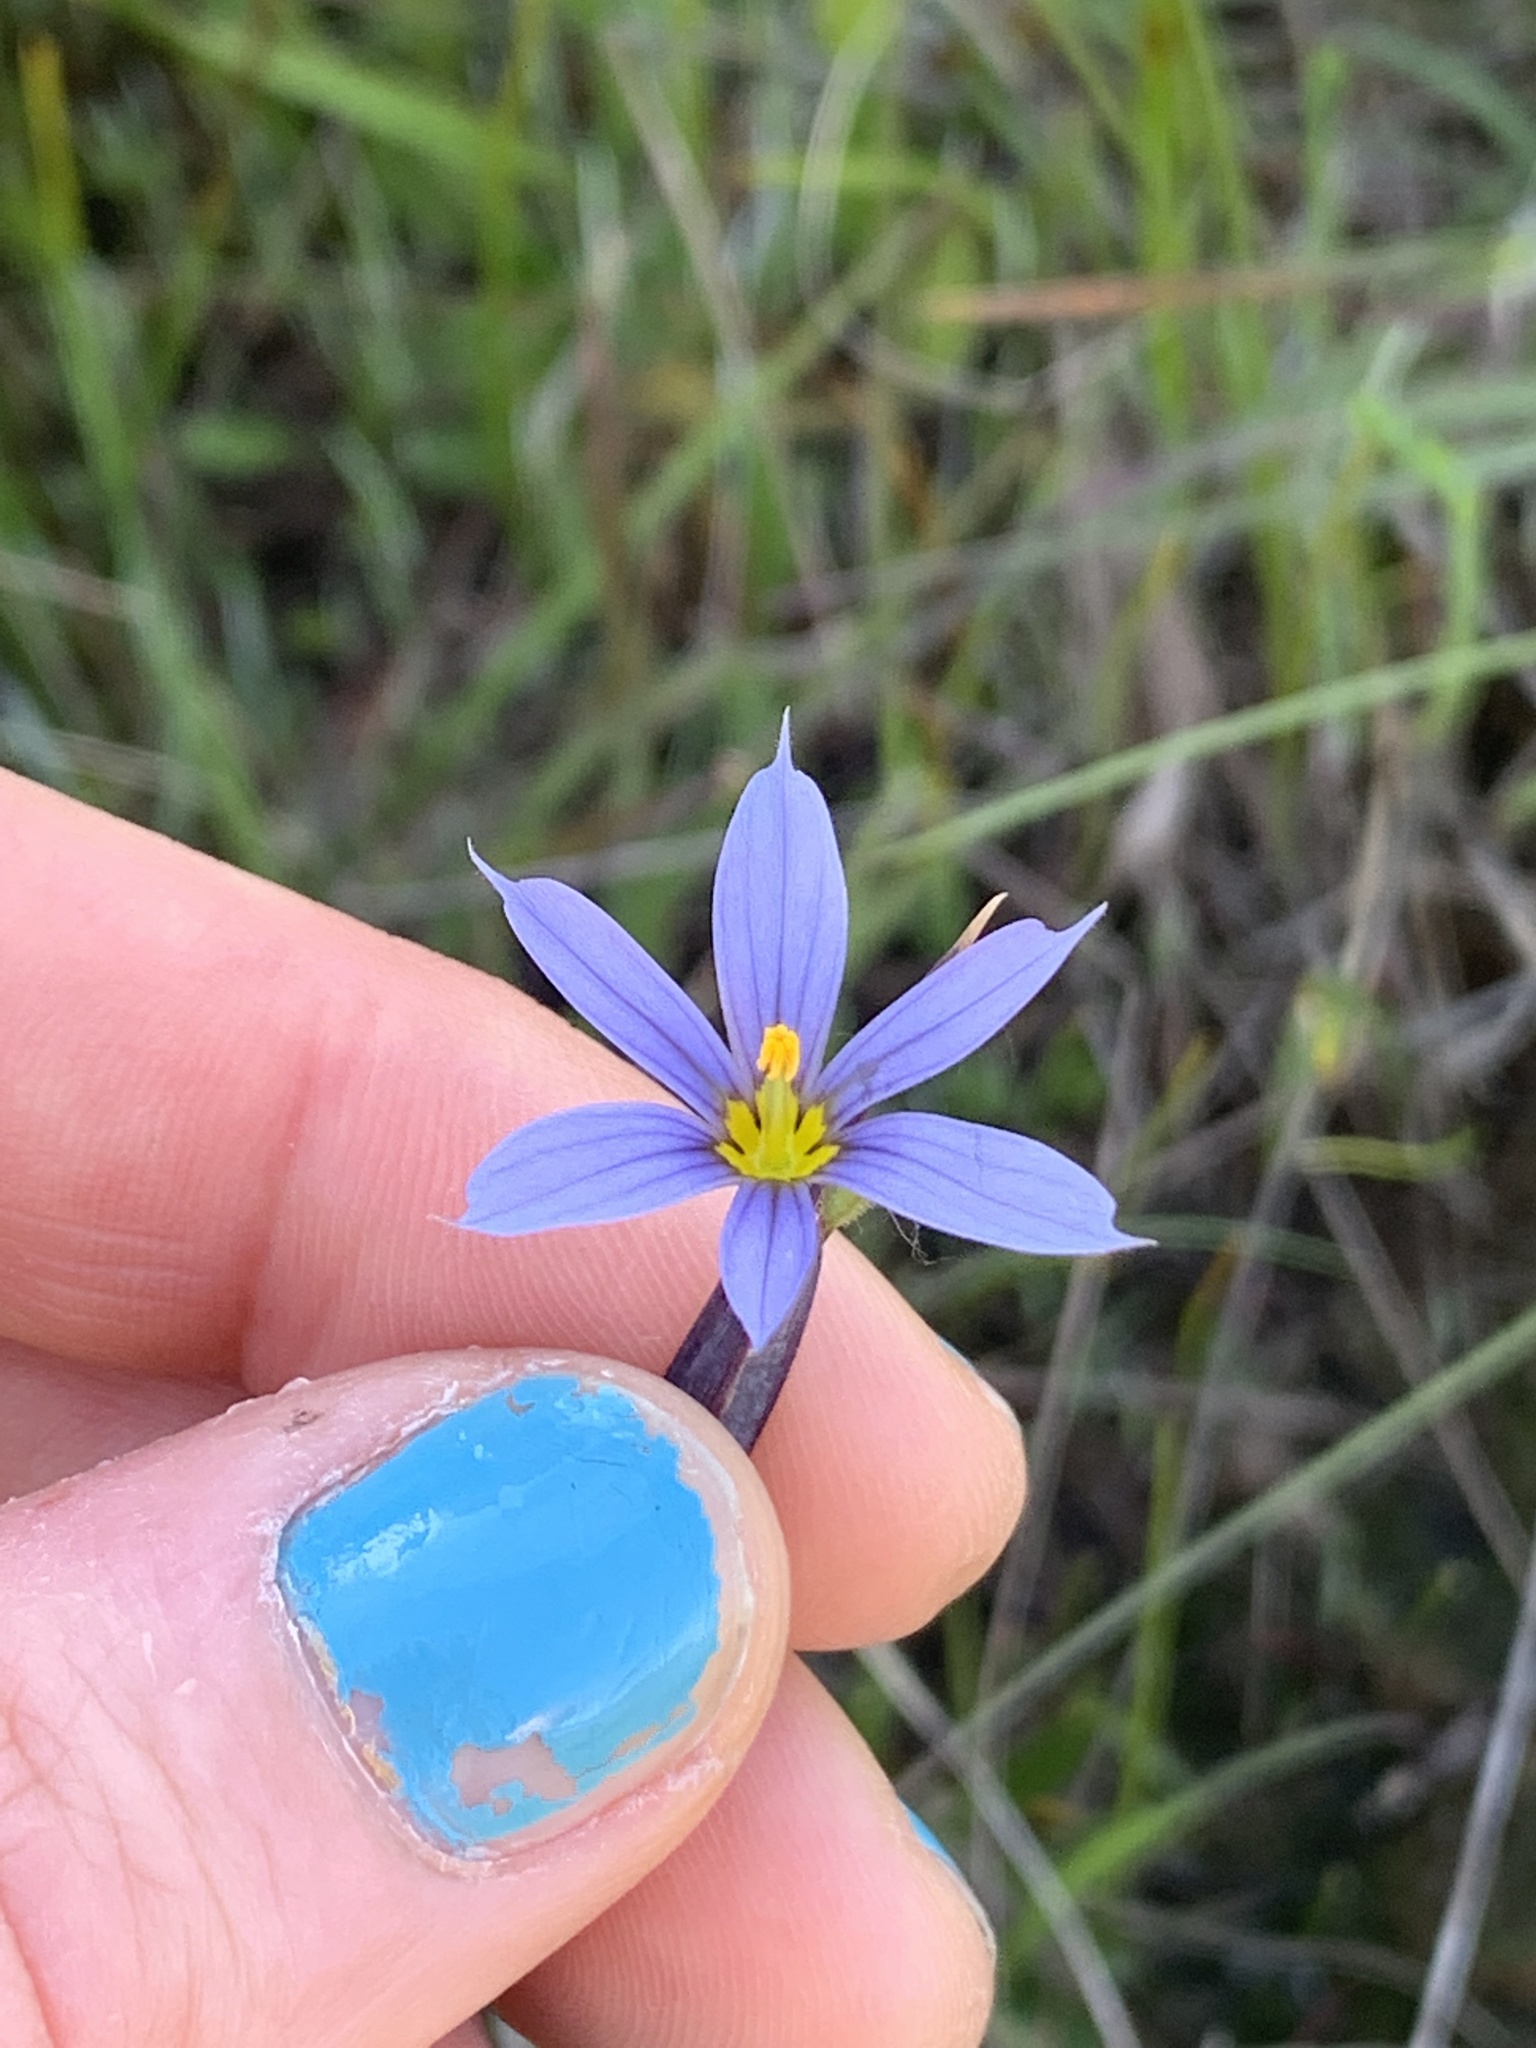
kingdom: Plantae
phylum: Tracheophyta
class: Liliopsida
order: Asparagales
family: Iridaceae
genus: Sisyrinchium
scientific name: Sisyrinchium idahoense
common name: Idaho blue-eyed-grass
